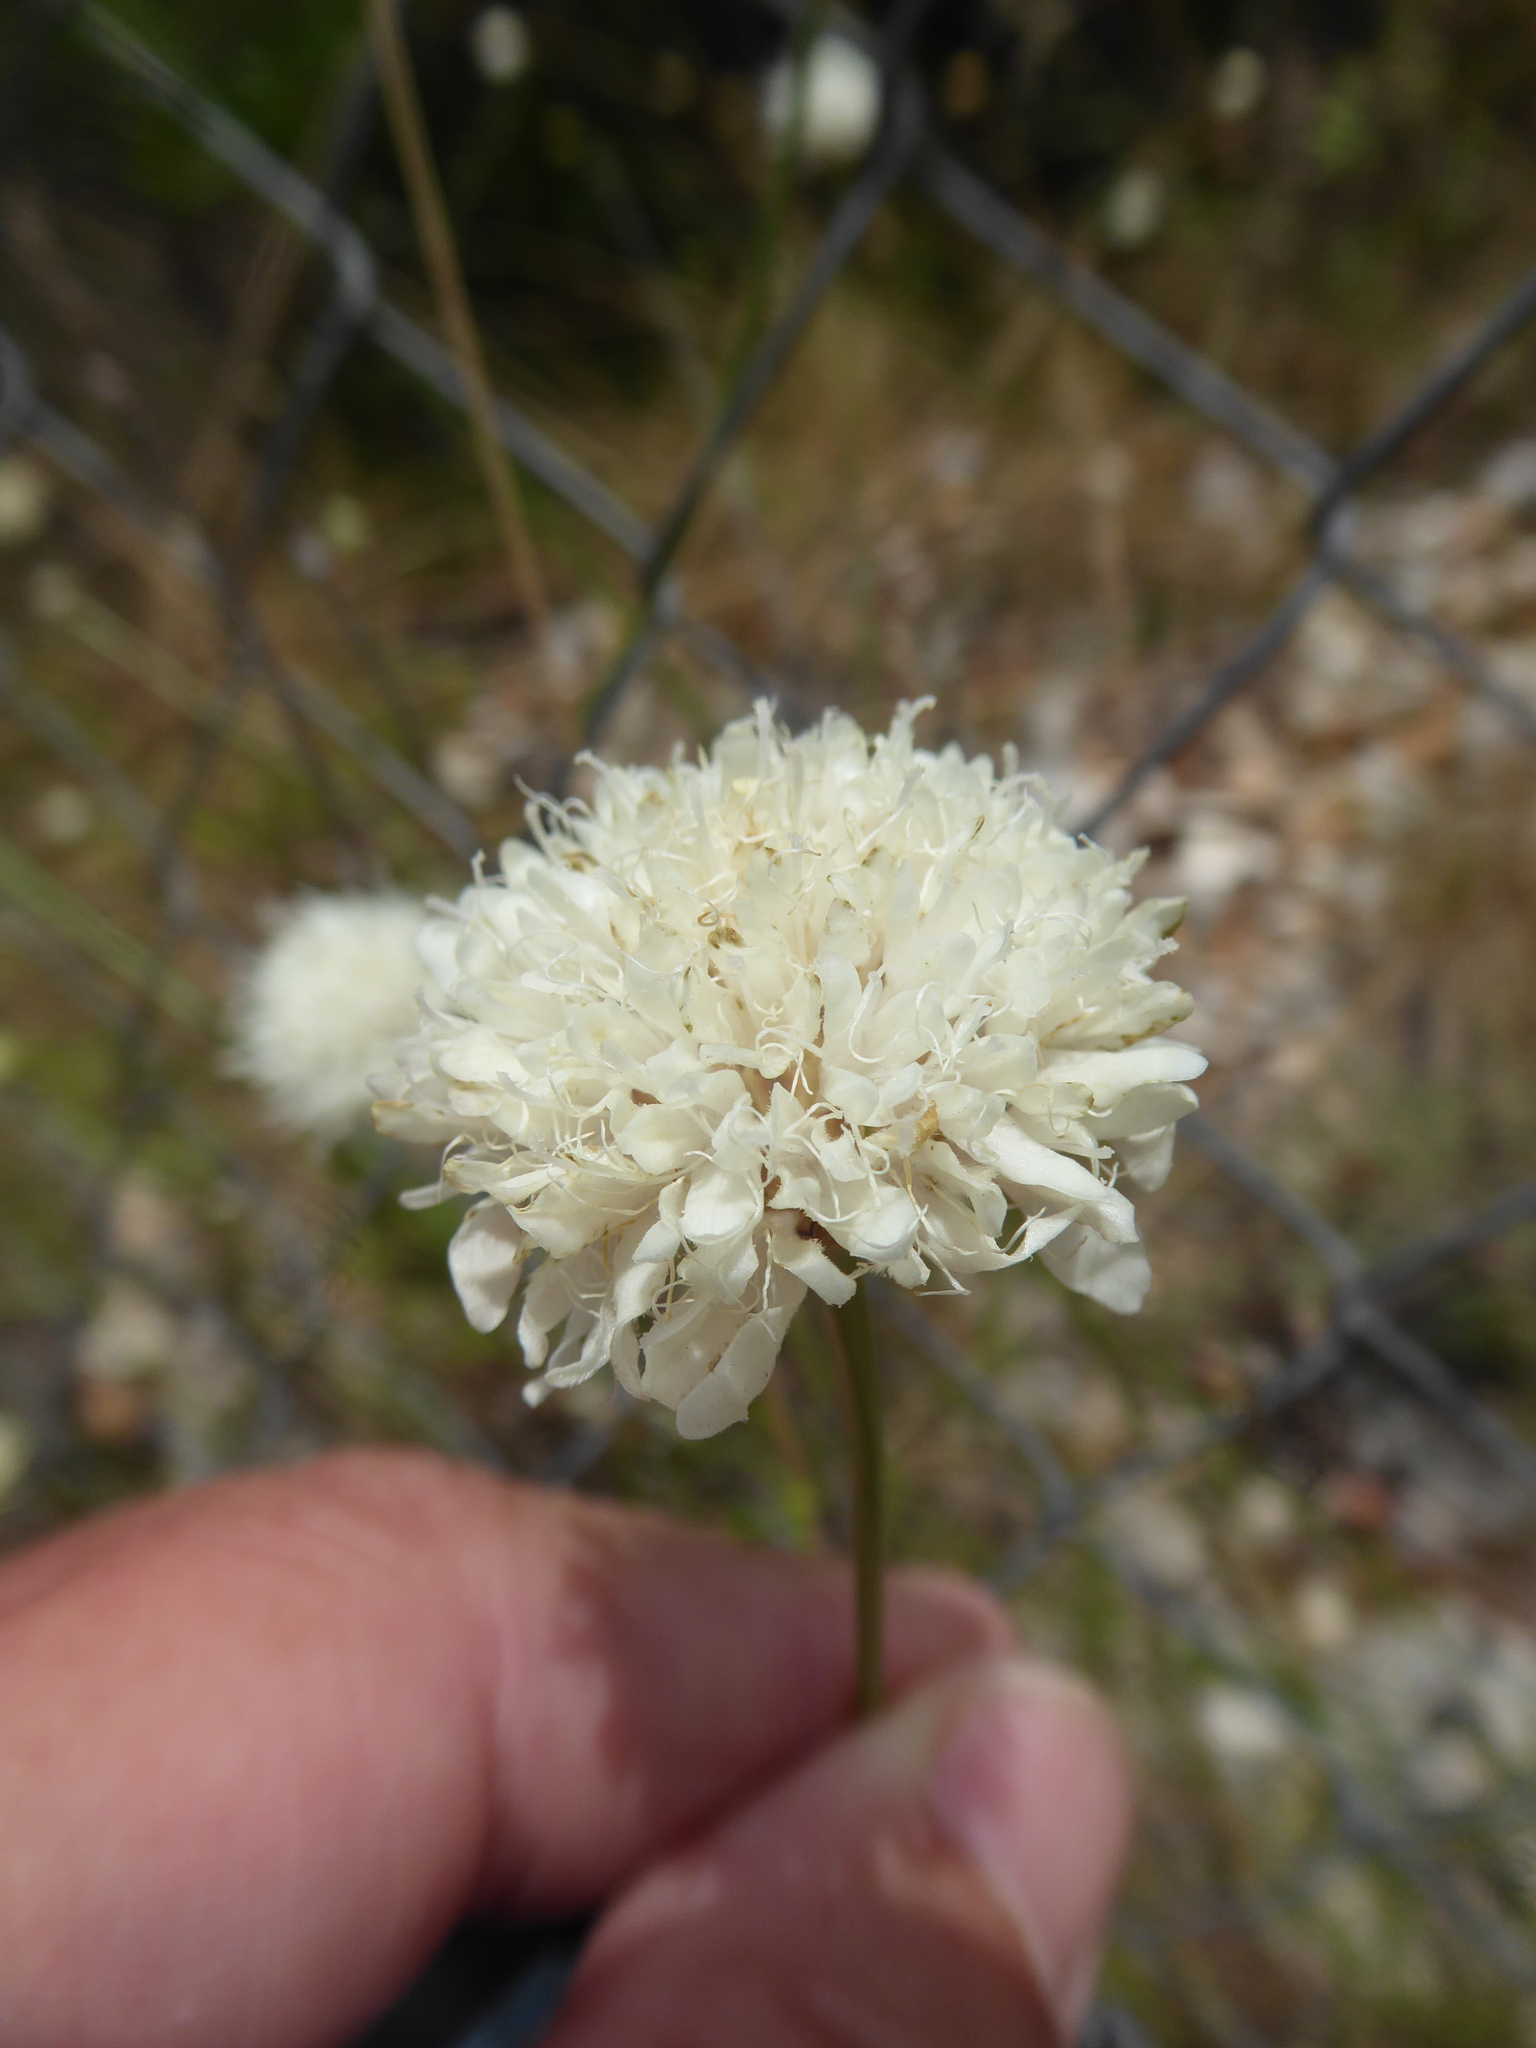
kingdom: Plantae
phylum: Tracheophyta
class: Magnoliopsida
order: Dipsacales
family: Caprifoliaceae
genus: Cephalaria
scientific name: Cephalaria leucantha
